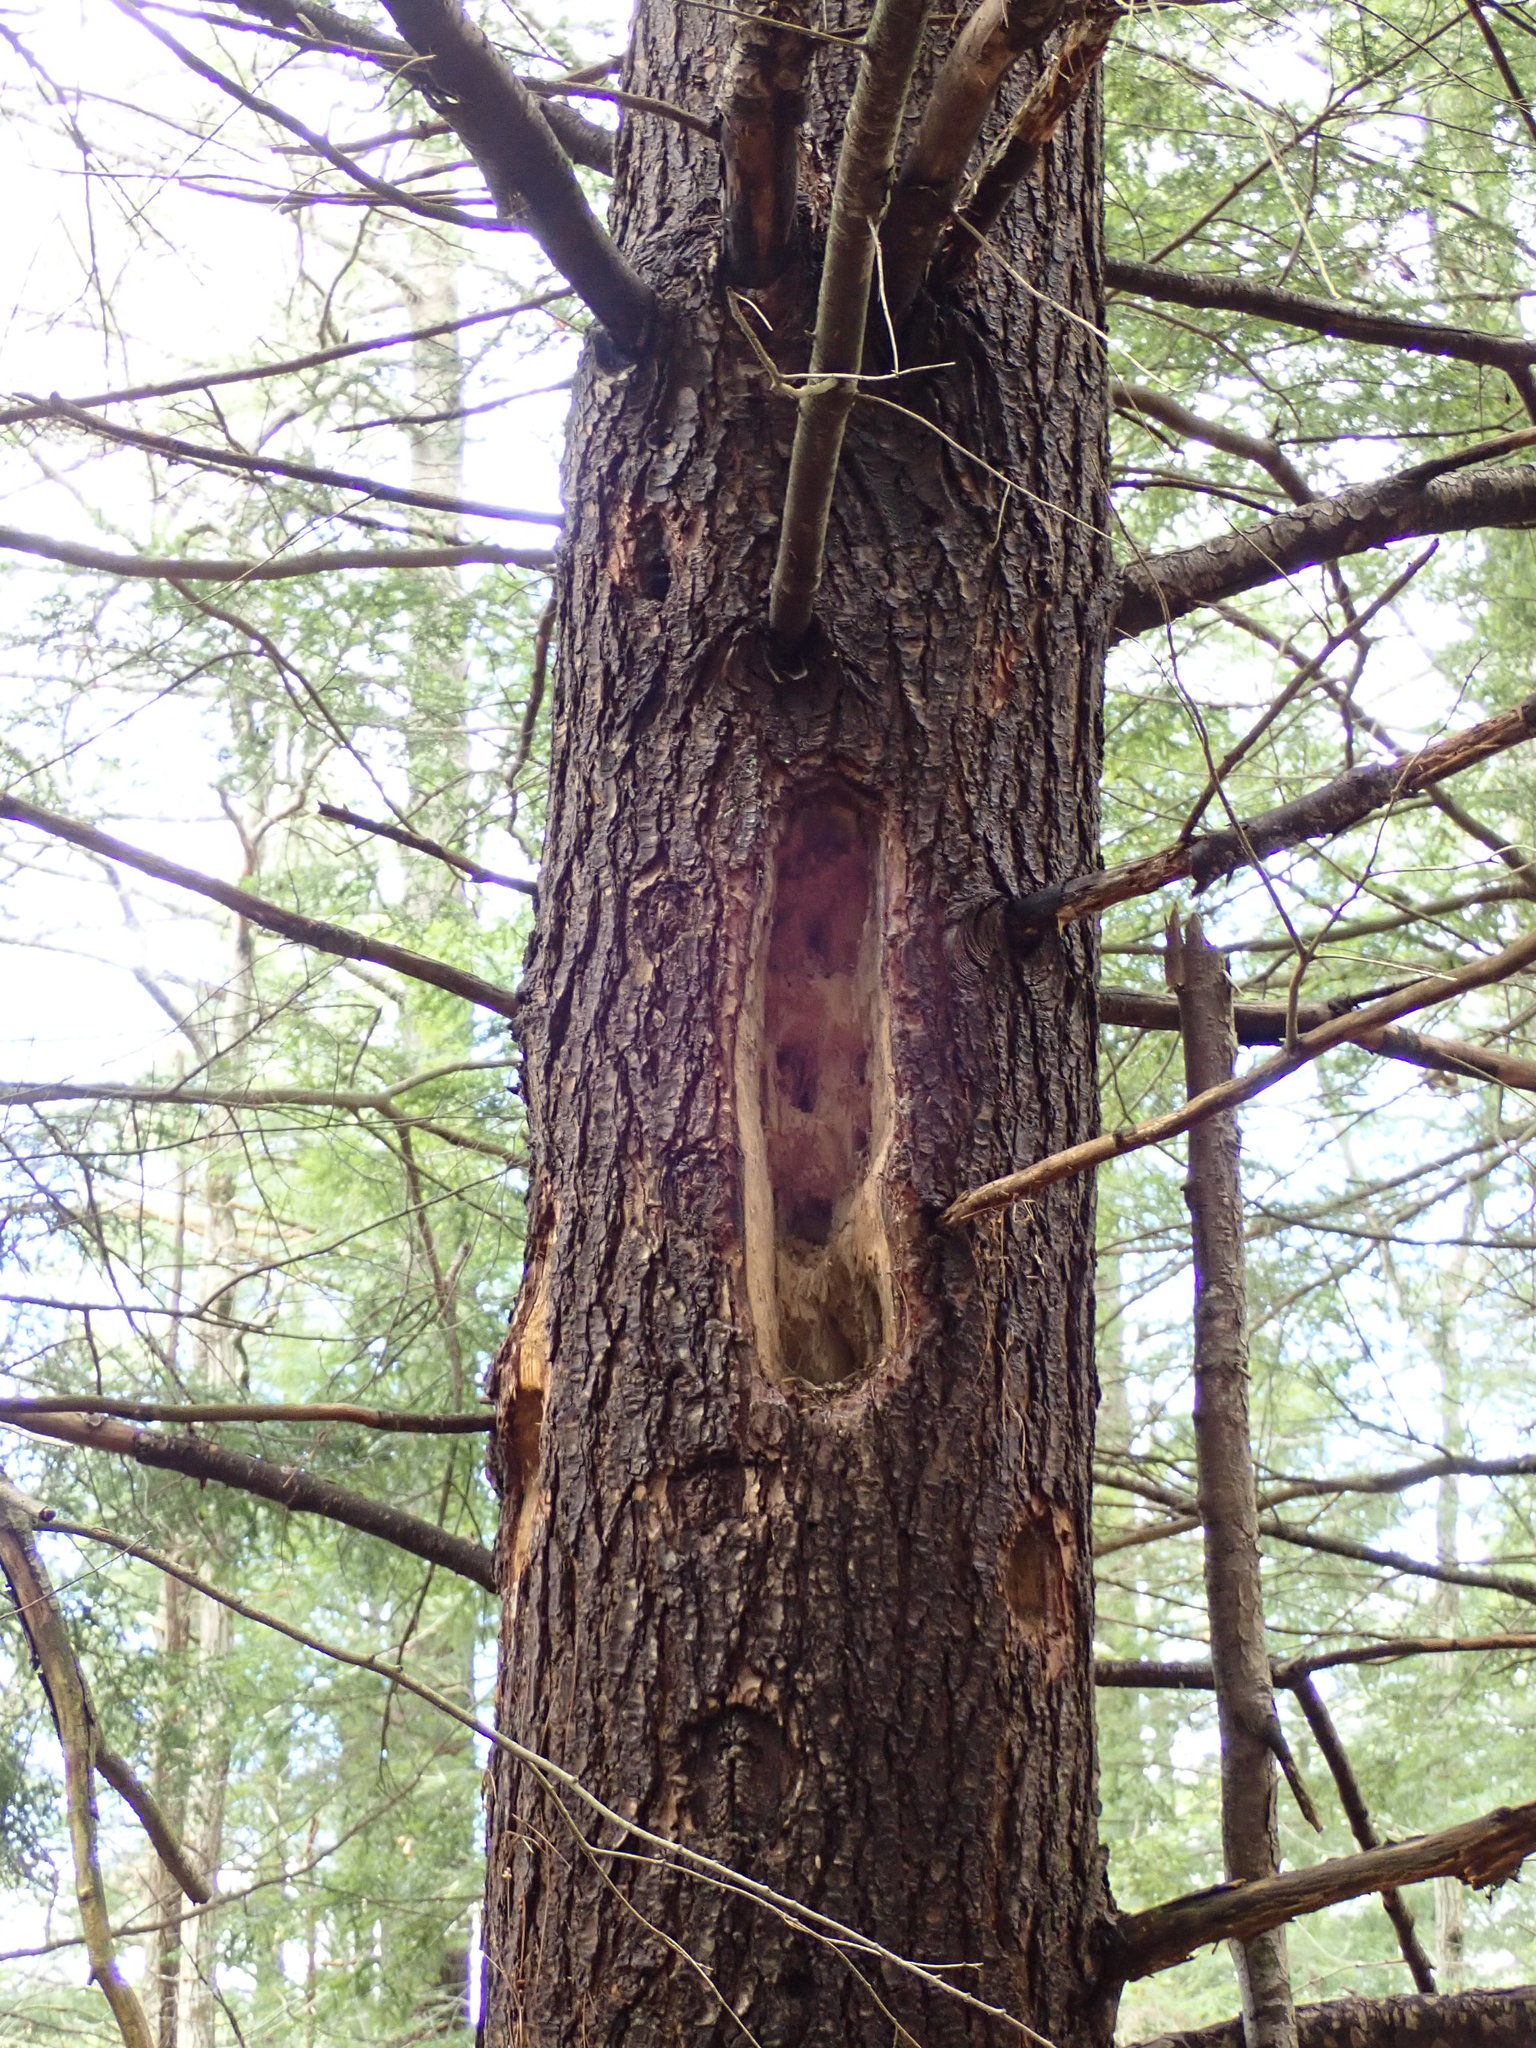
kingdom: Animalia
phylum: Chordata
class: Aves
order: Piciformes
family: Picidae
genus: Dryocopus
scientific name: Dryocopus pileatus
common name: Pileated woodpecker
